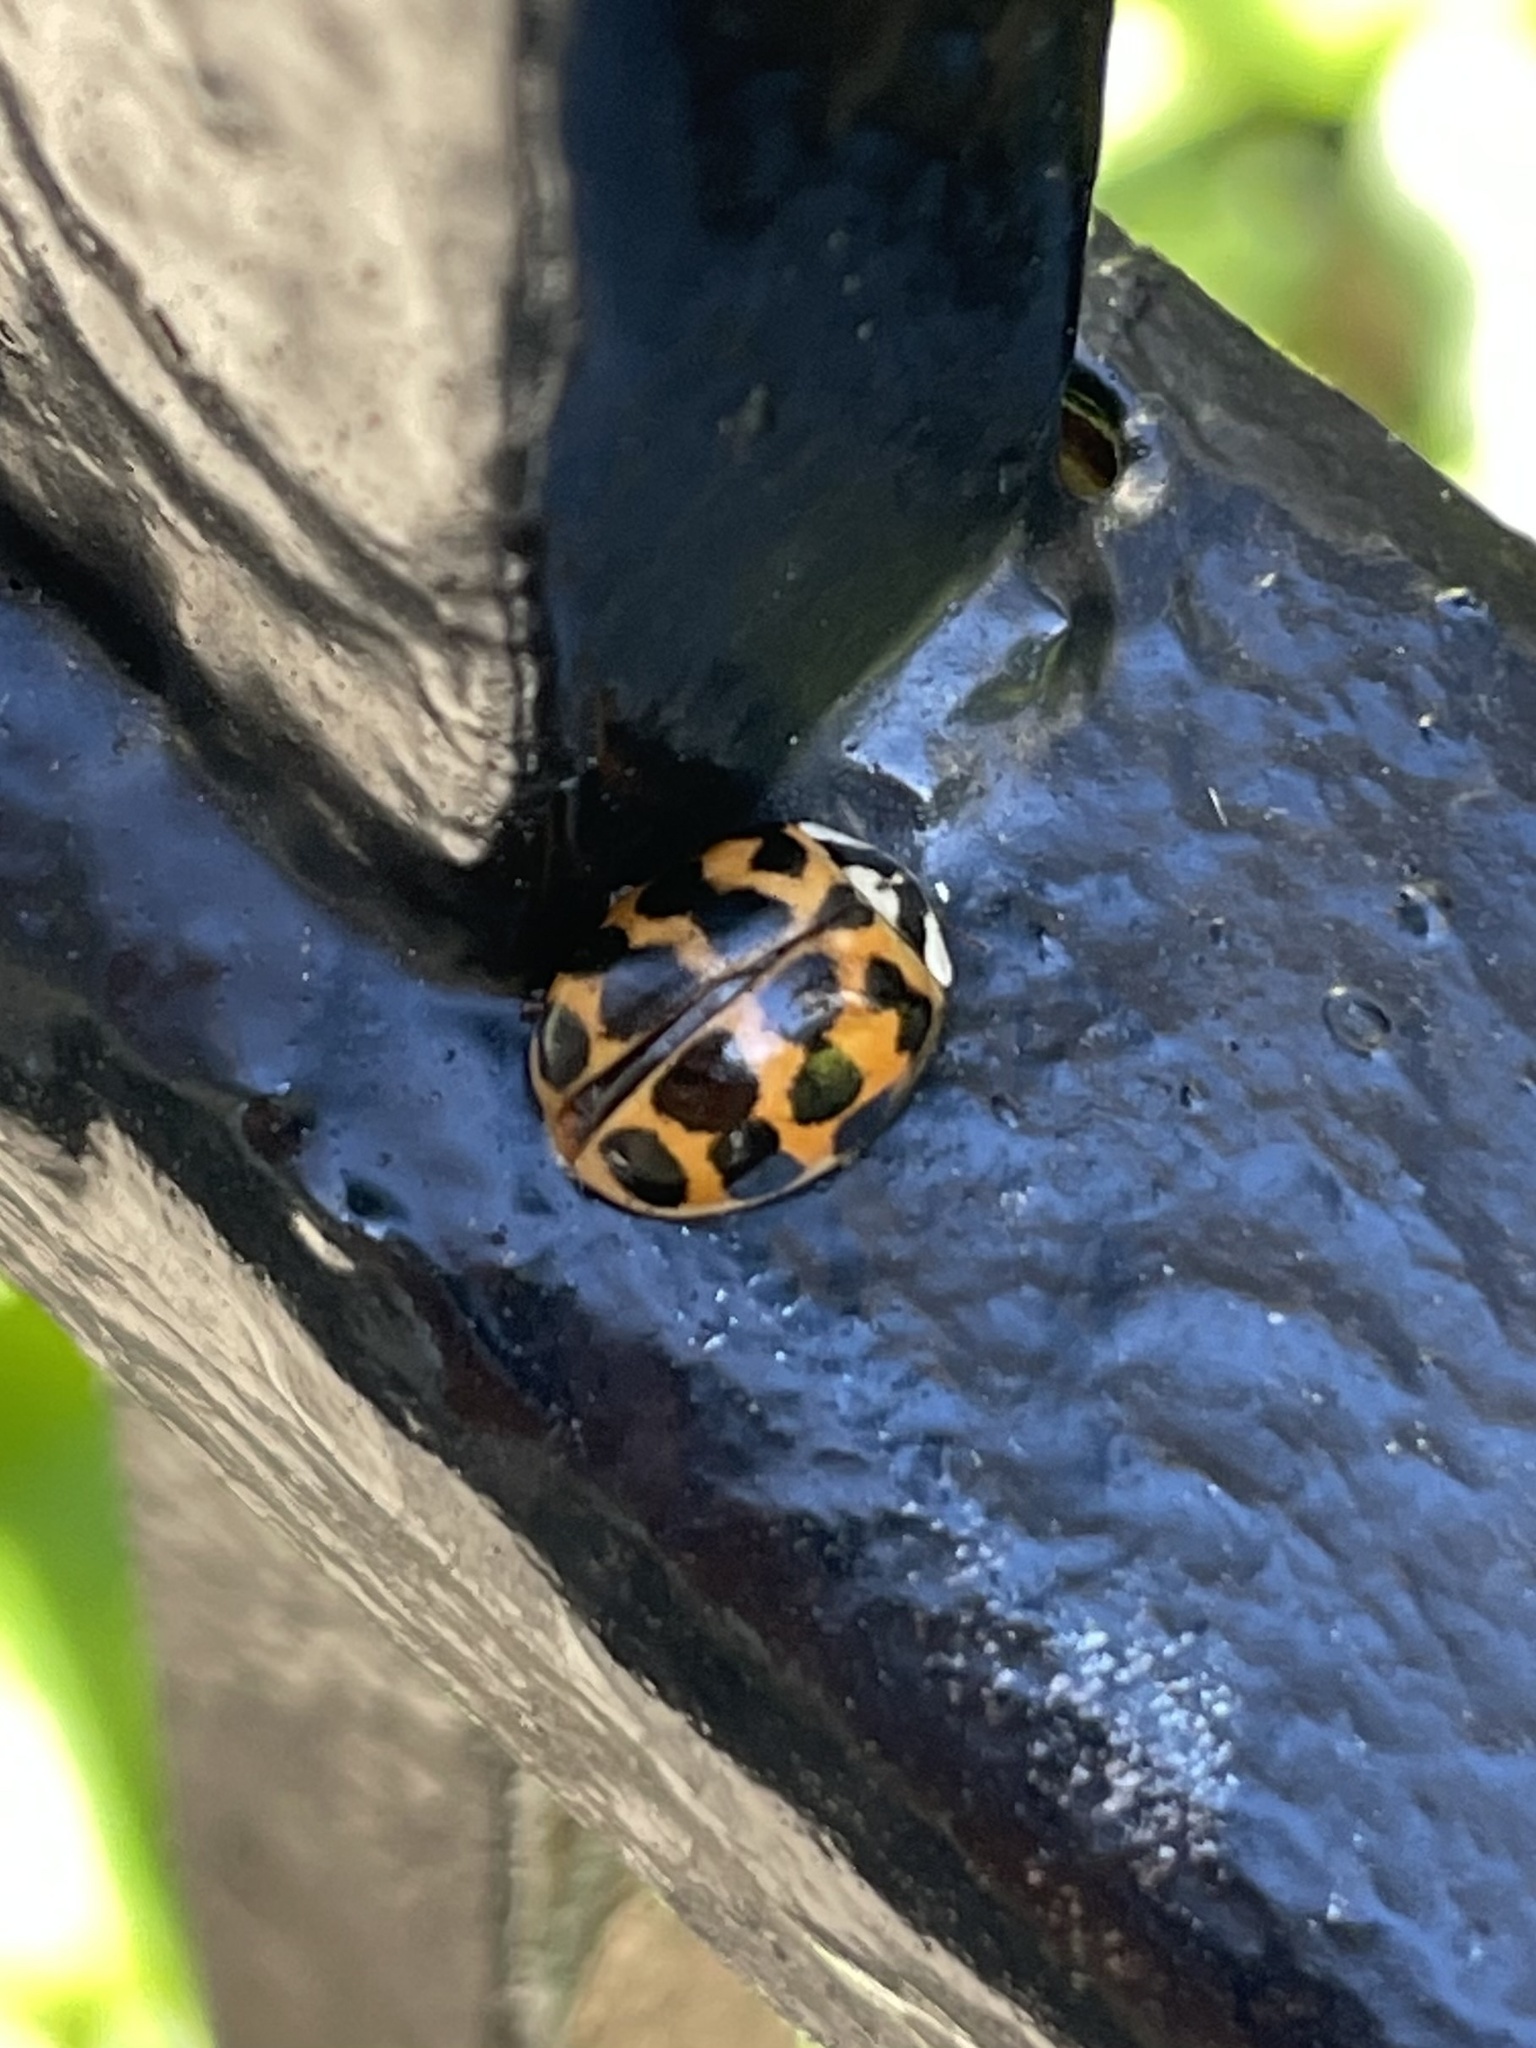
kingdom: Animalia
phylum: Arthropoda
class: Insecta
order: Coleoptera
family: Coccinellidae
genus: Harmonia
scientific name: Harmonia axyridis
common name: Harlequin ladybird
